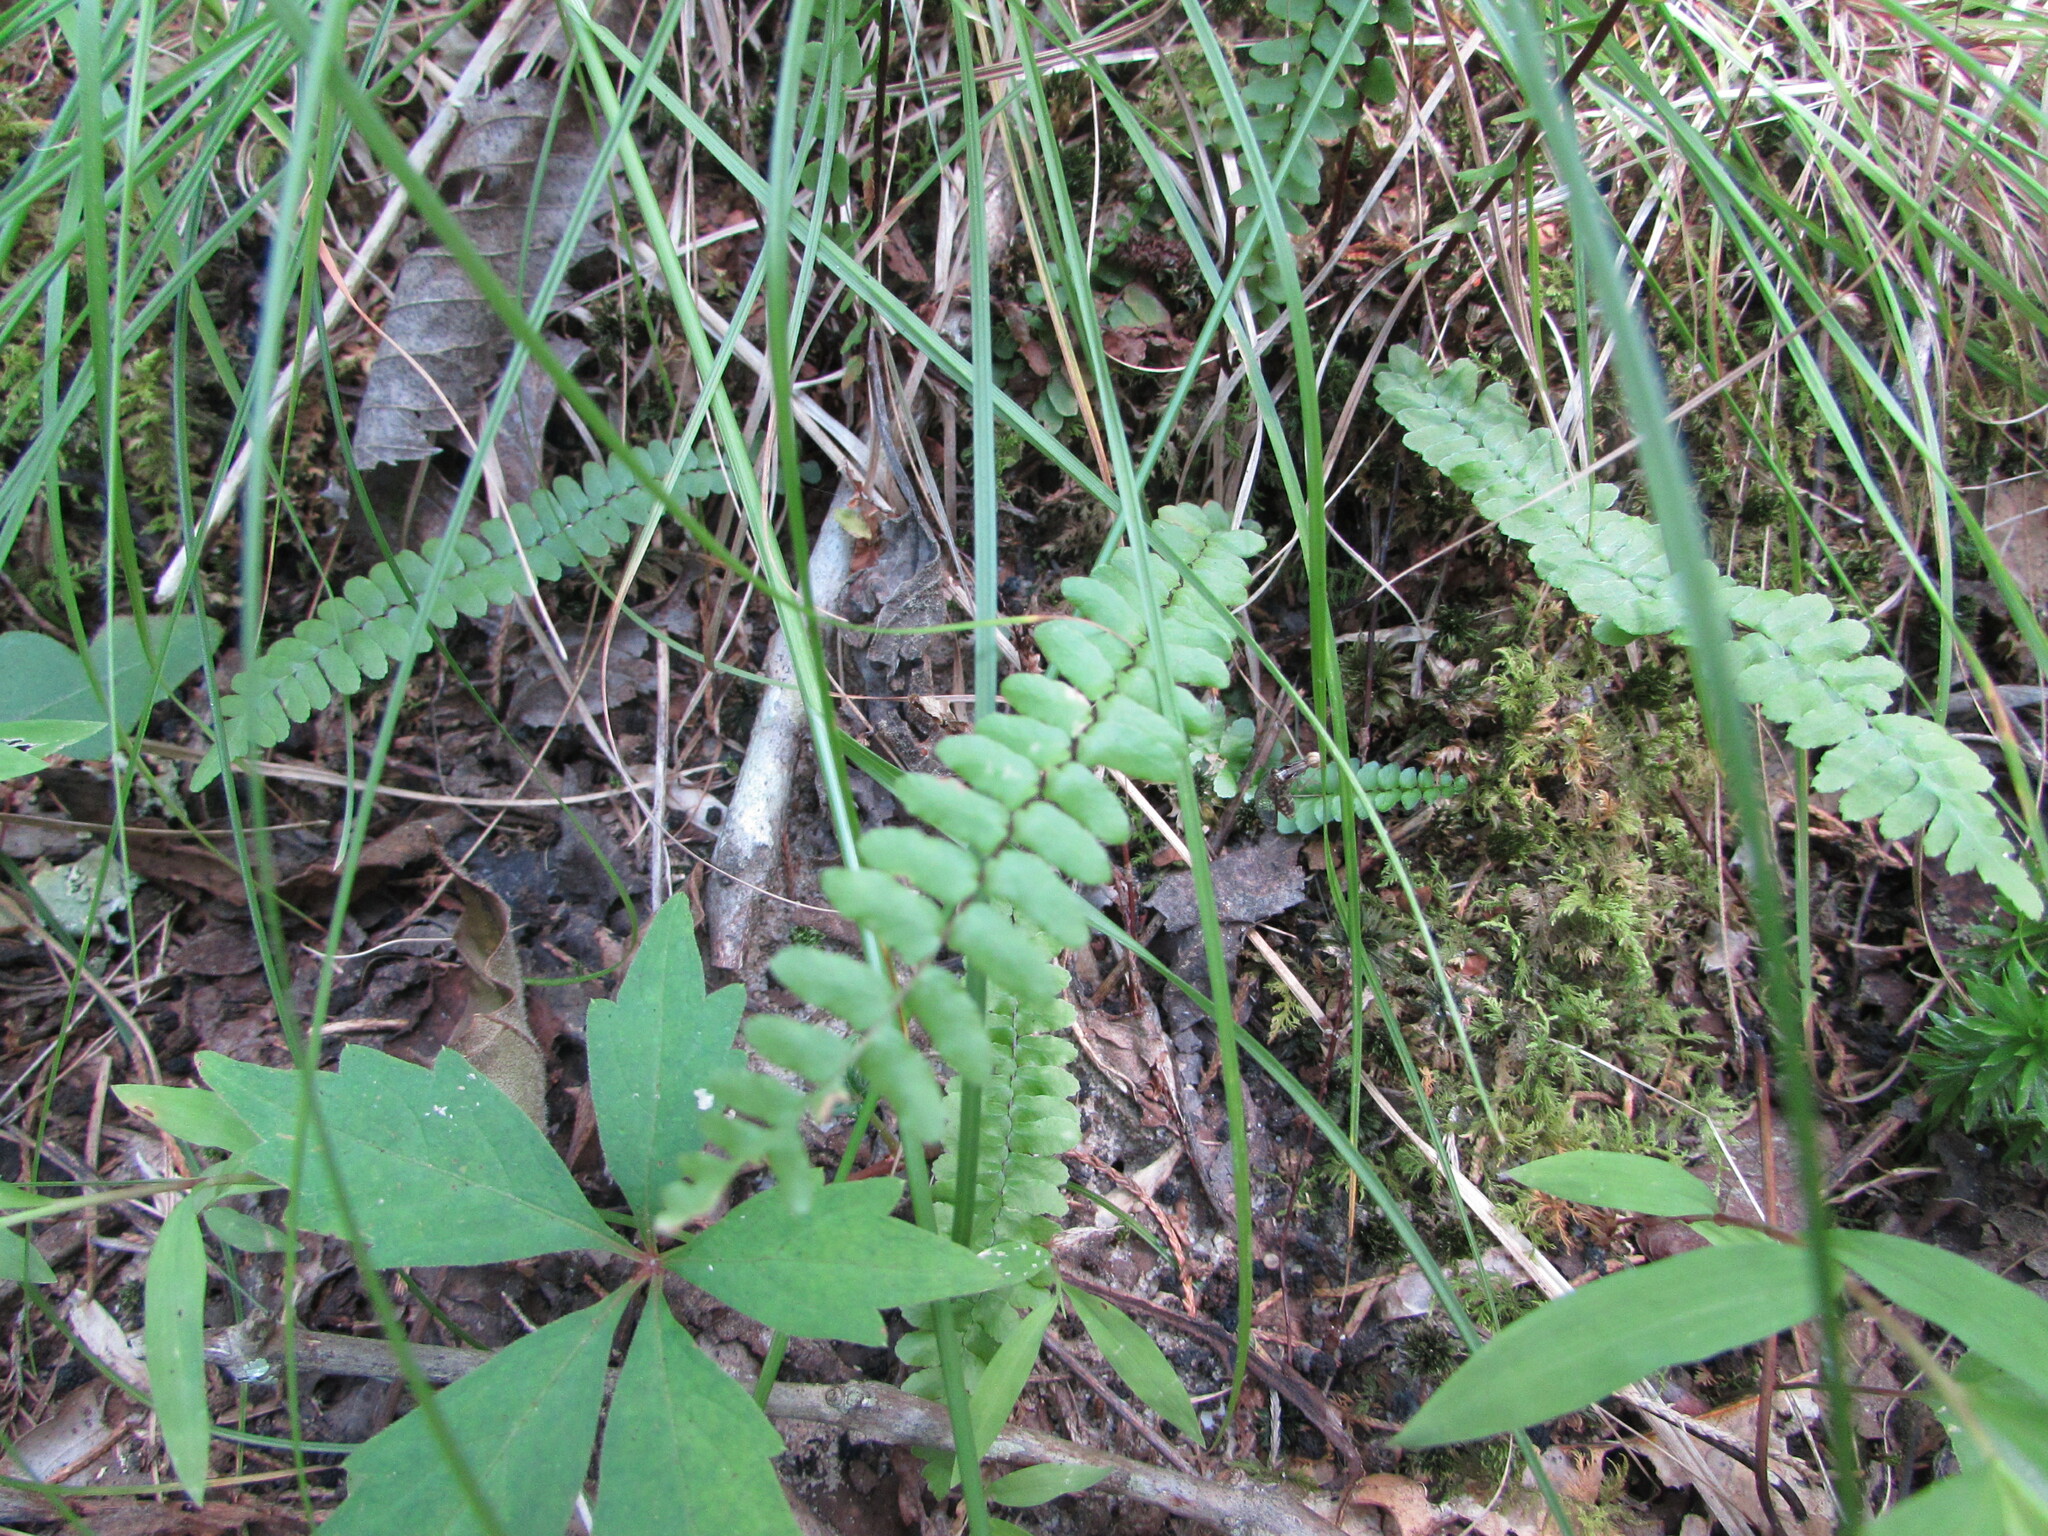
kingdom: Plantae
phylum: Tracheophyta
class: Polypodiopsida
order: Polypodiales
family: Aspleniaceae
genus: Asplenium
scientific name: Asplenium platyneuron
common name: Ebony spleenwort
